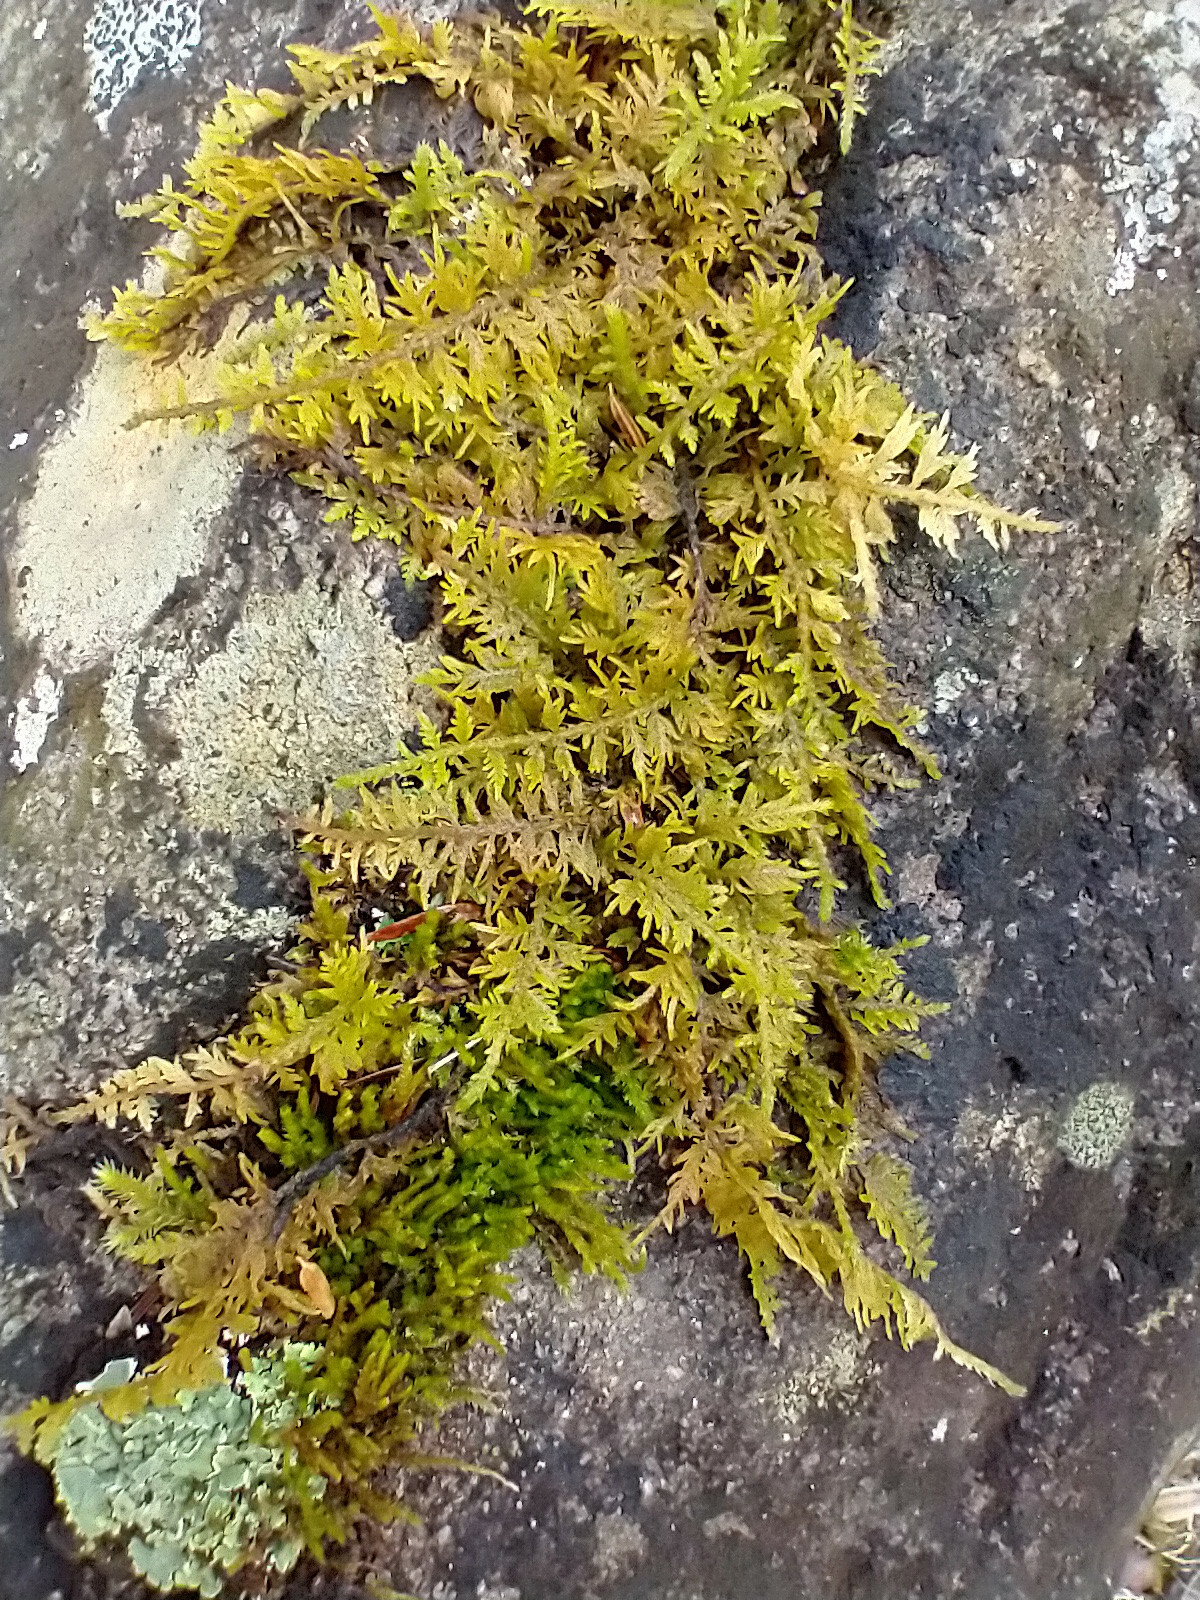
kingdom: Plantae
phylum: Bryophyta
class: Bryopsida
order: Hypnales
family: Thuidiaceae
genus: Thuidium
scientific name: Thuidium delicatulum
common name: Delicate fern moss
